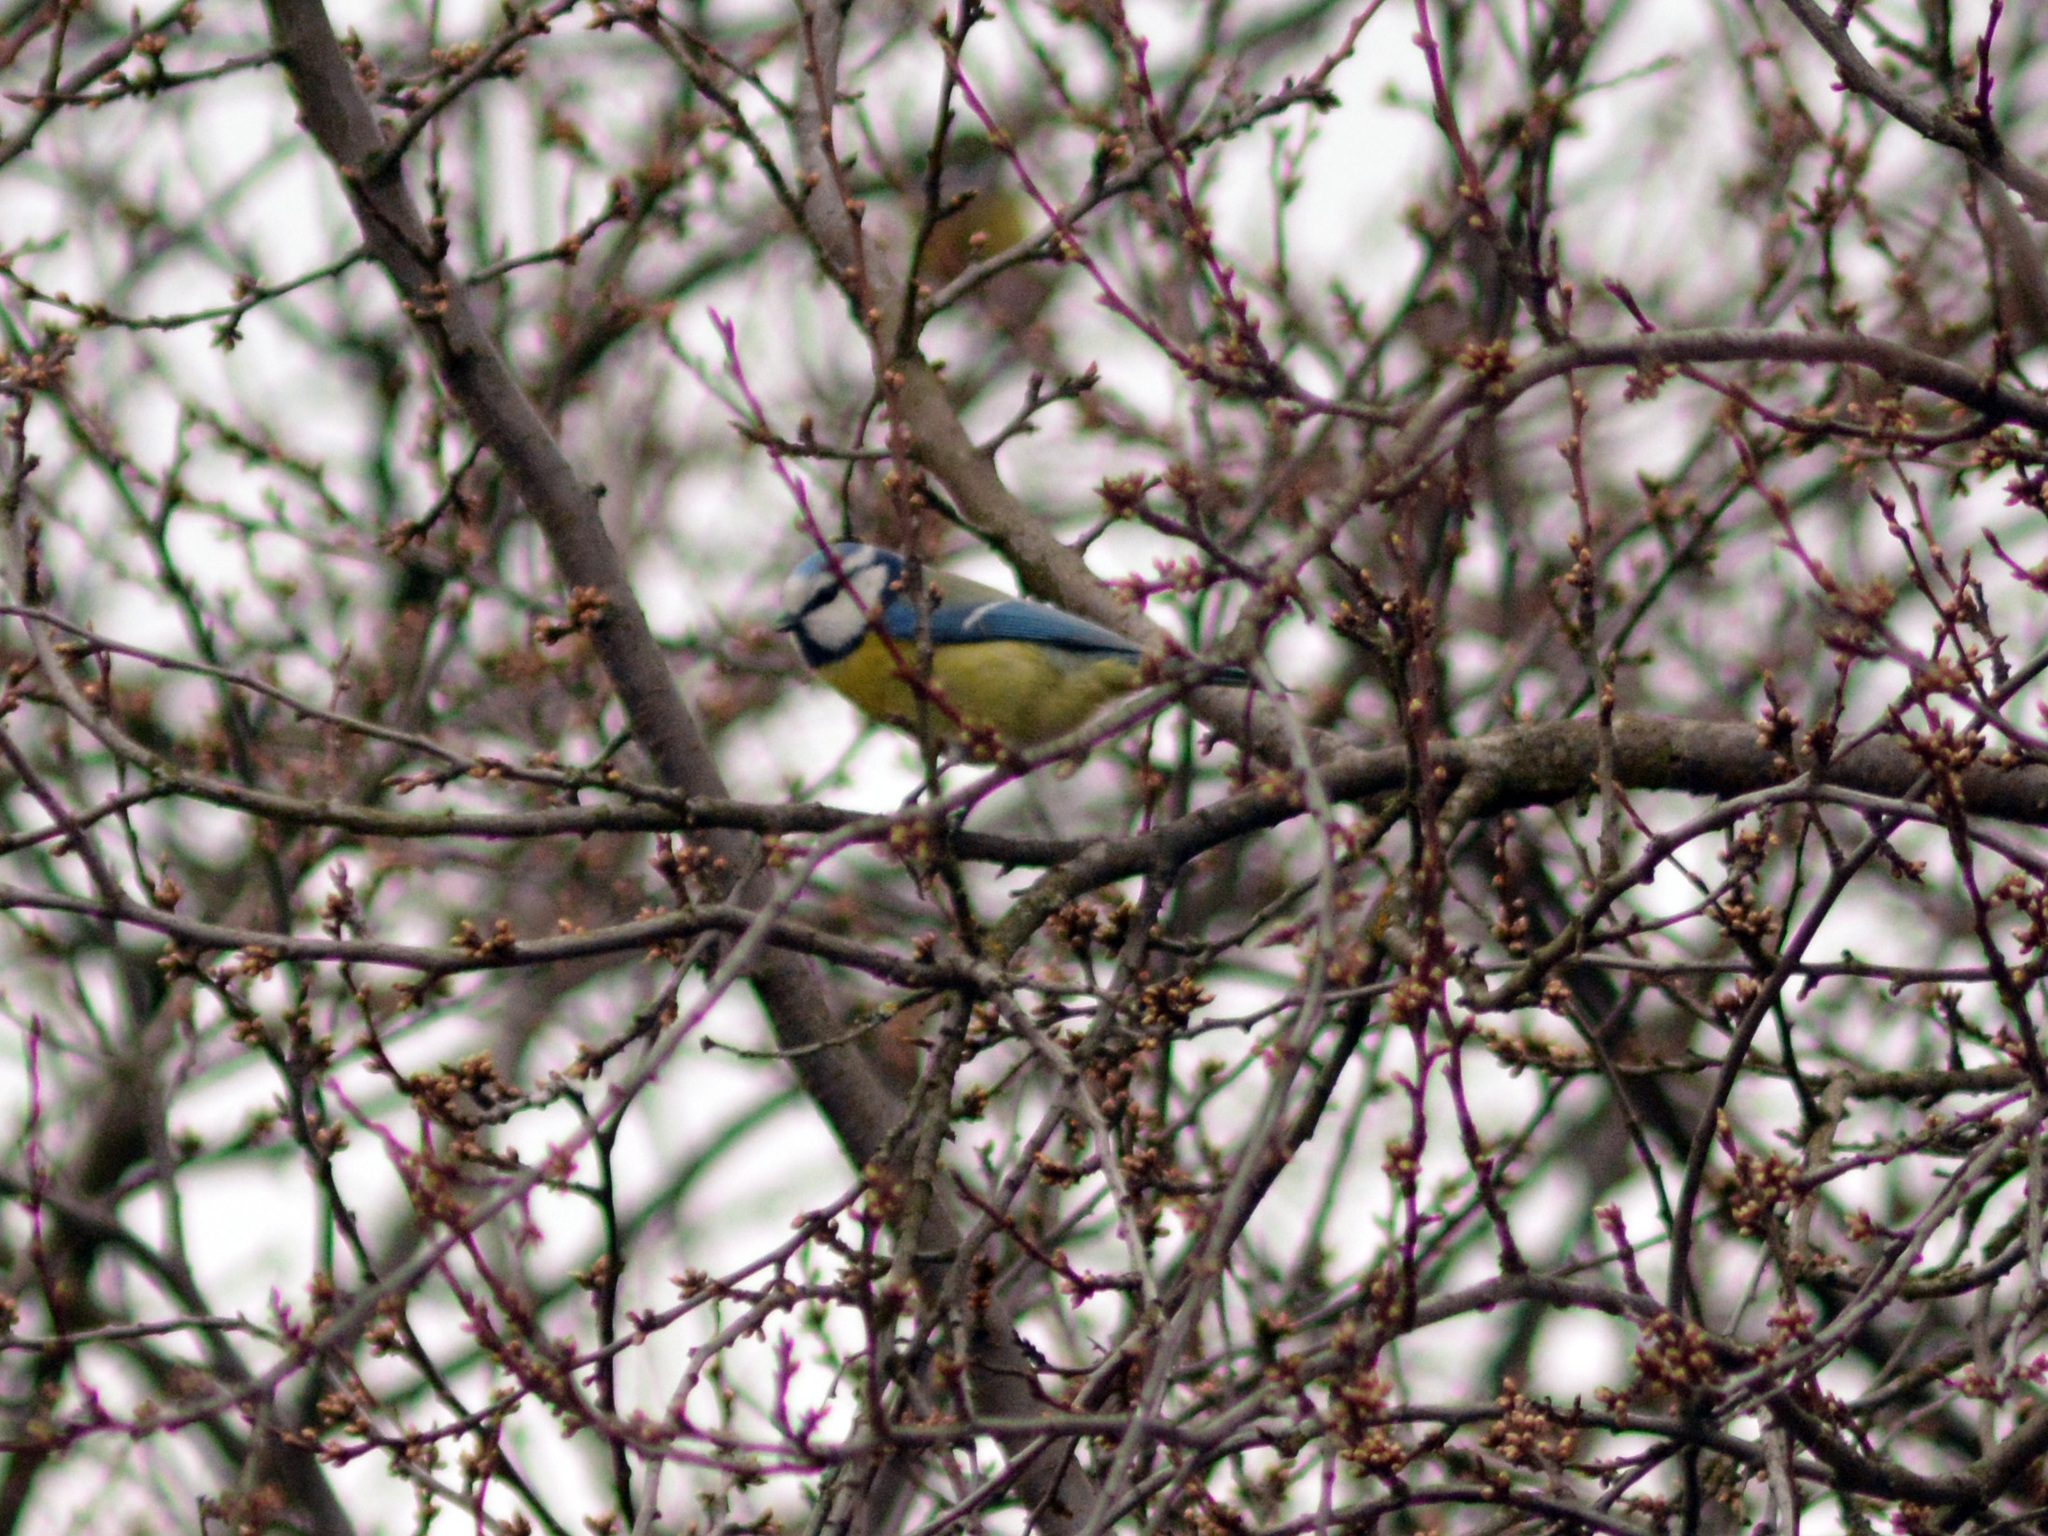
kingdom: Animalia
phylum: Chordata
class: Aves
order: Passeriformes
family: Paridae
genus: Cyanistes
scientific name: Cyanistes caeruleus
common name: Eurasian blue tit
